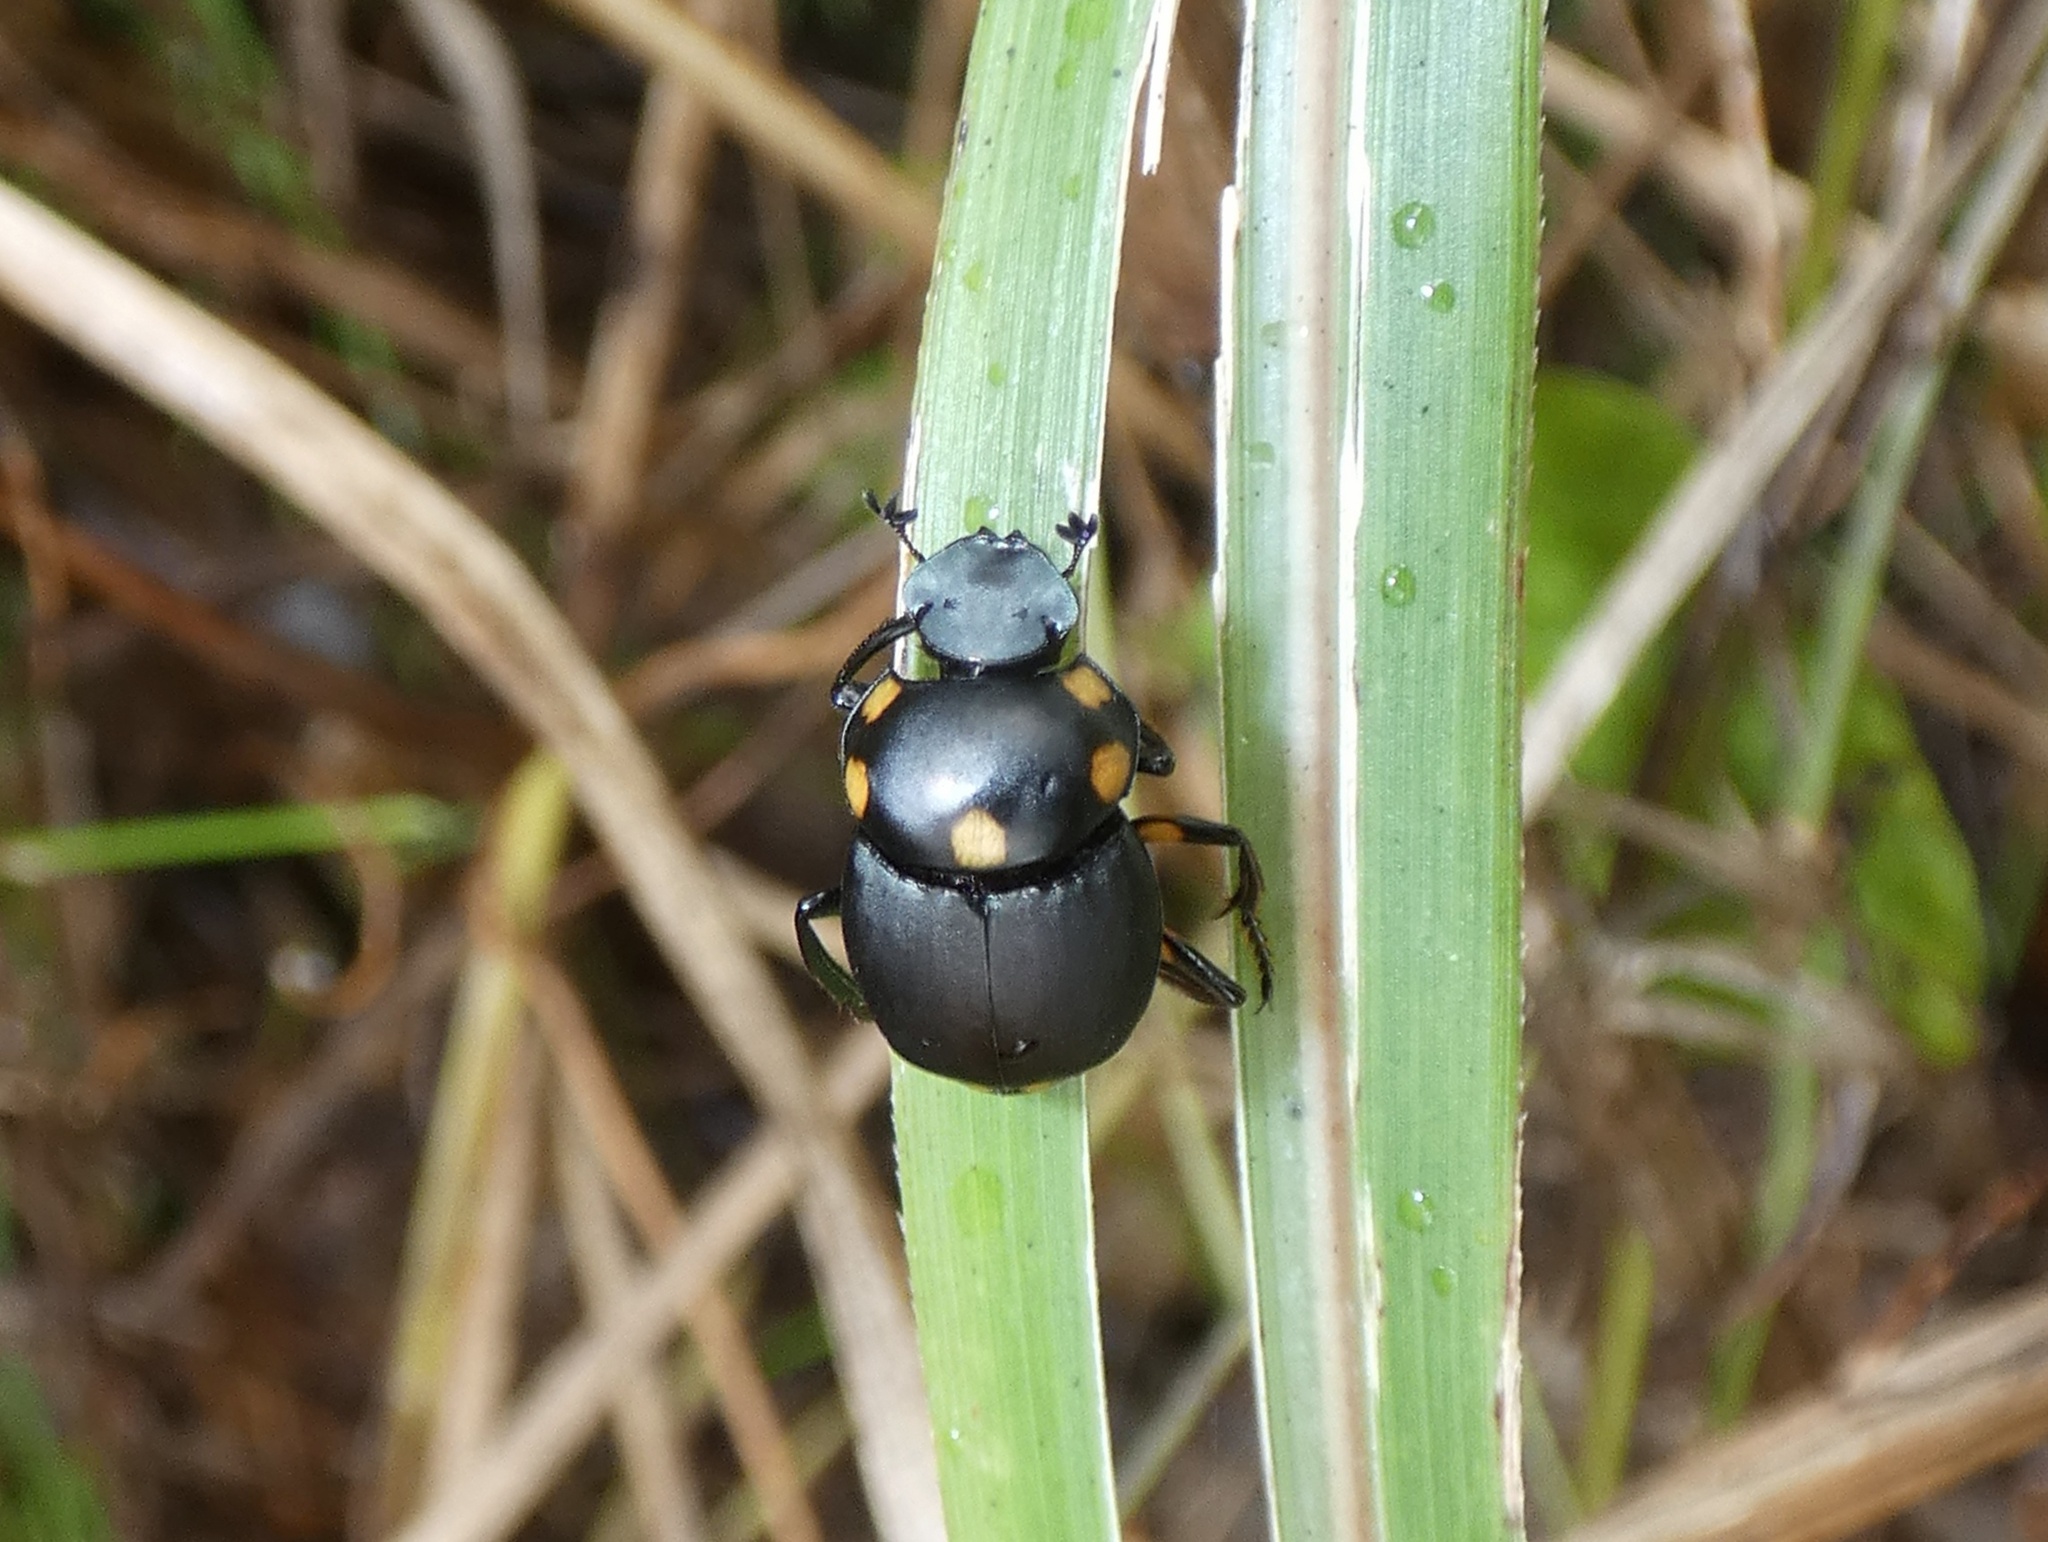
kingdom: Animalia
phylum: Arthropoda
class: Insecta
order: Coleoptera
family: Scarabaeidae
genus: Canthon
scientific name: Canthon septemmaculatus
